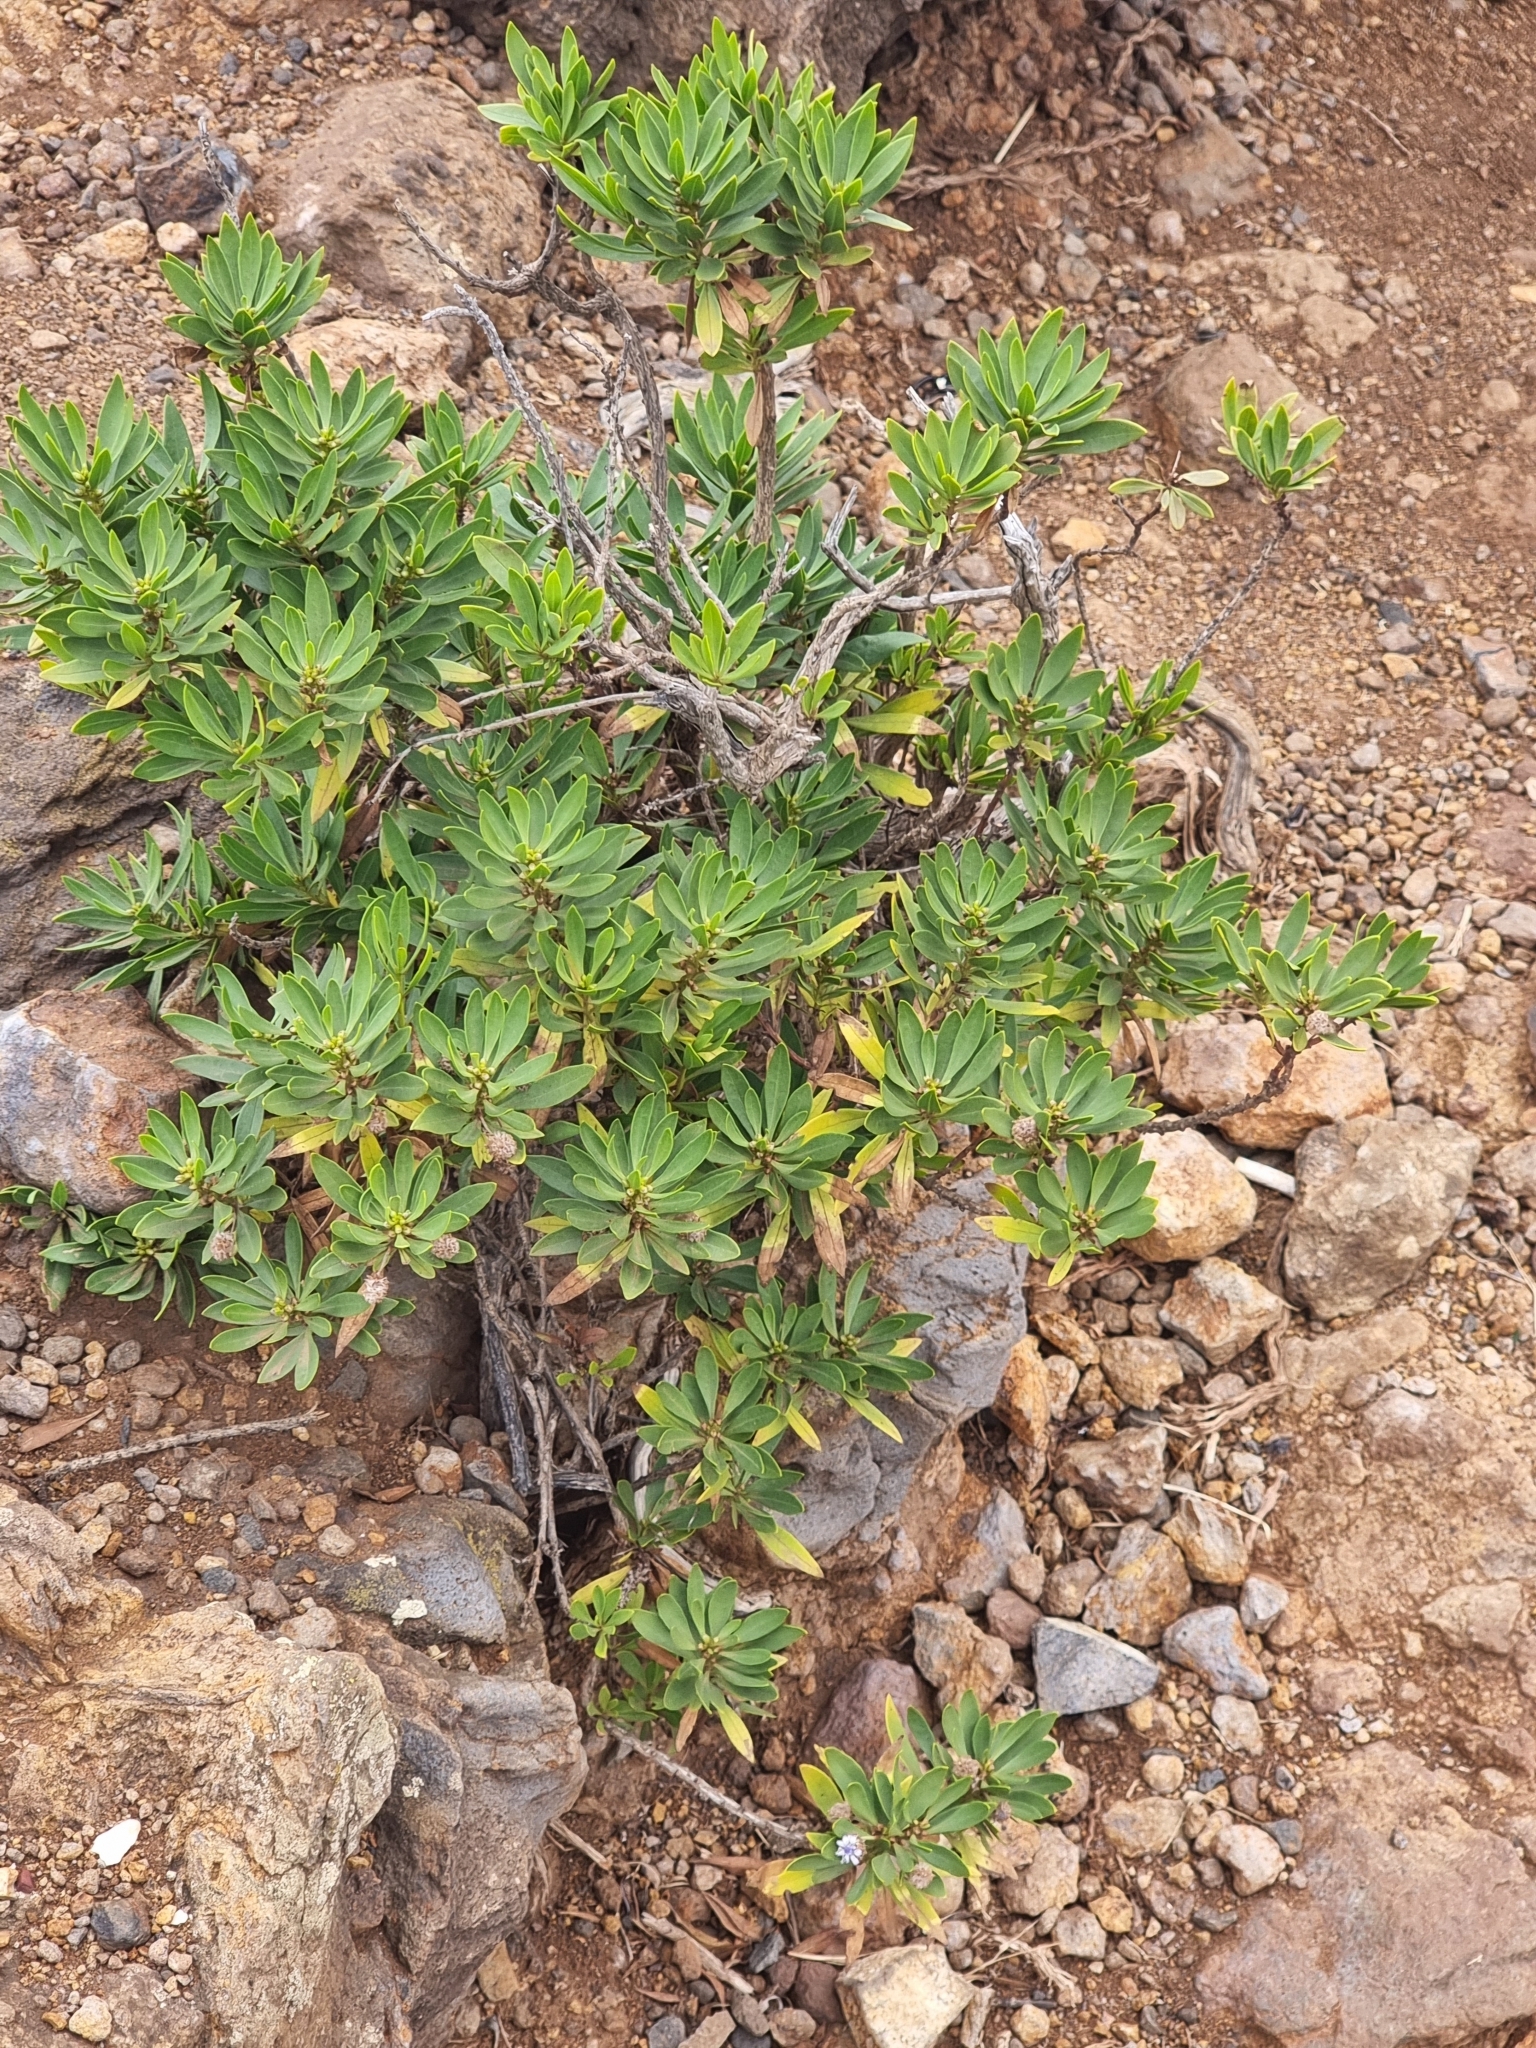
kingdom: Plantae
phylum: Tracheophyta
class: Magnoliopsida
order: Lamiales
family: Plantaginaceae
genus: Globularia
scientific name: Globularia salicina
